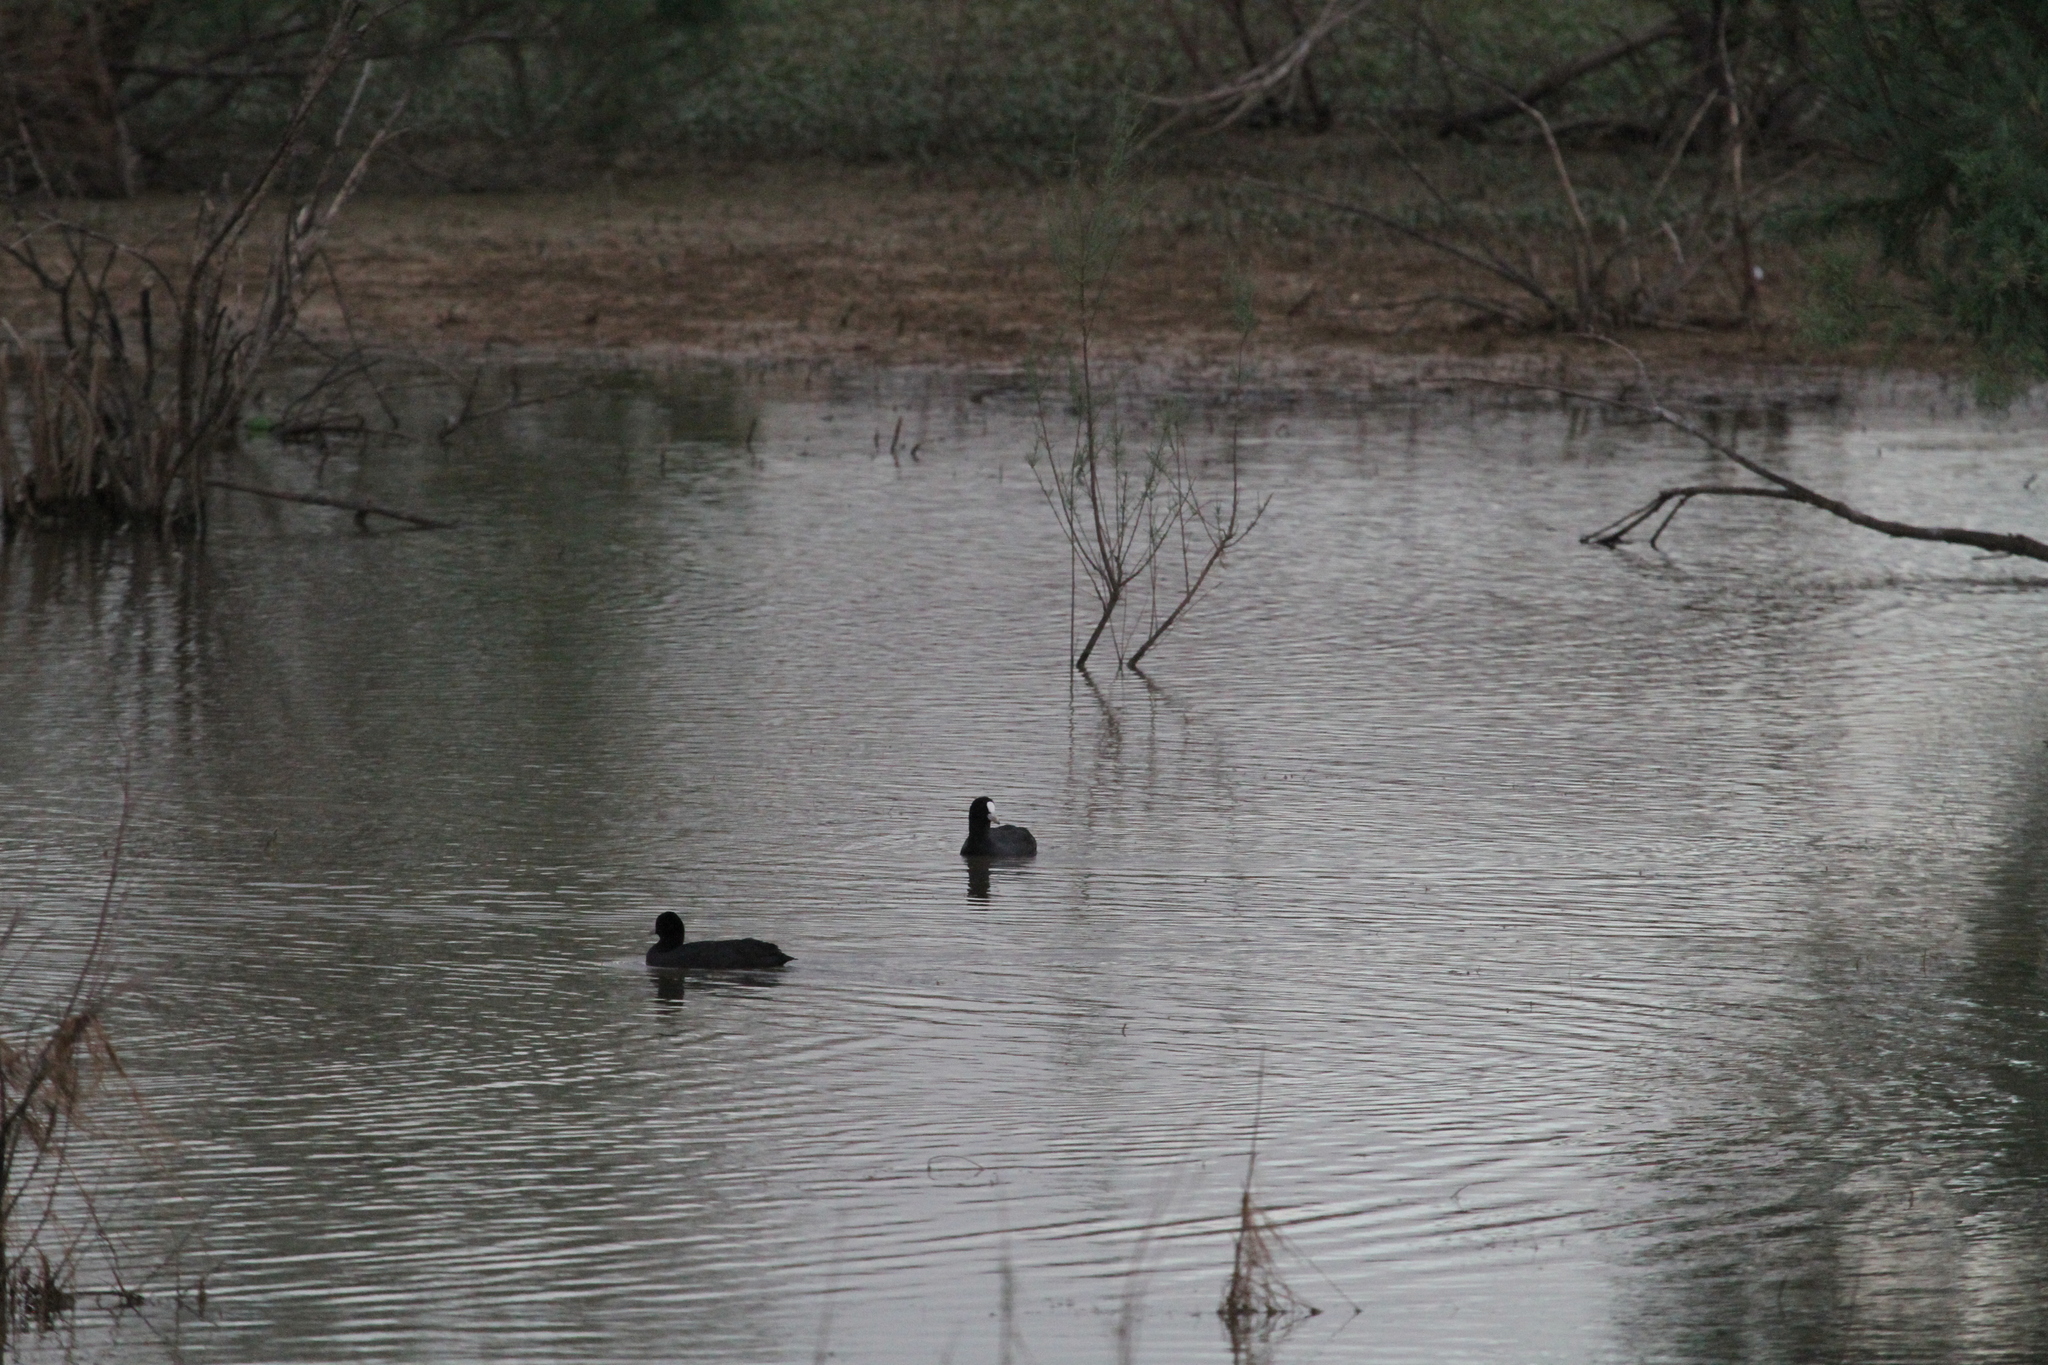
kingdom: Animalia
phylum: Chordata
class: Aves
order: Gruiformes
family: Rallidae
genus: Fulica
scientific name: Fulica atra
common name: Eurasian coot
